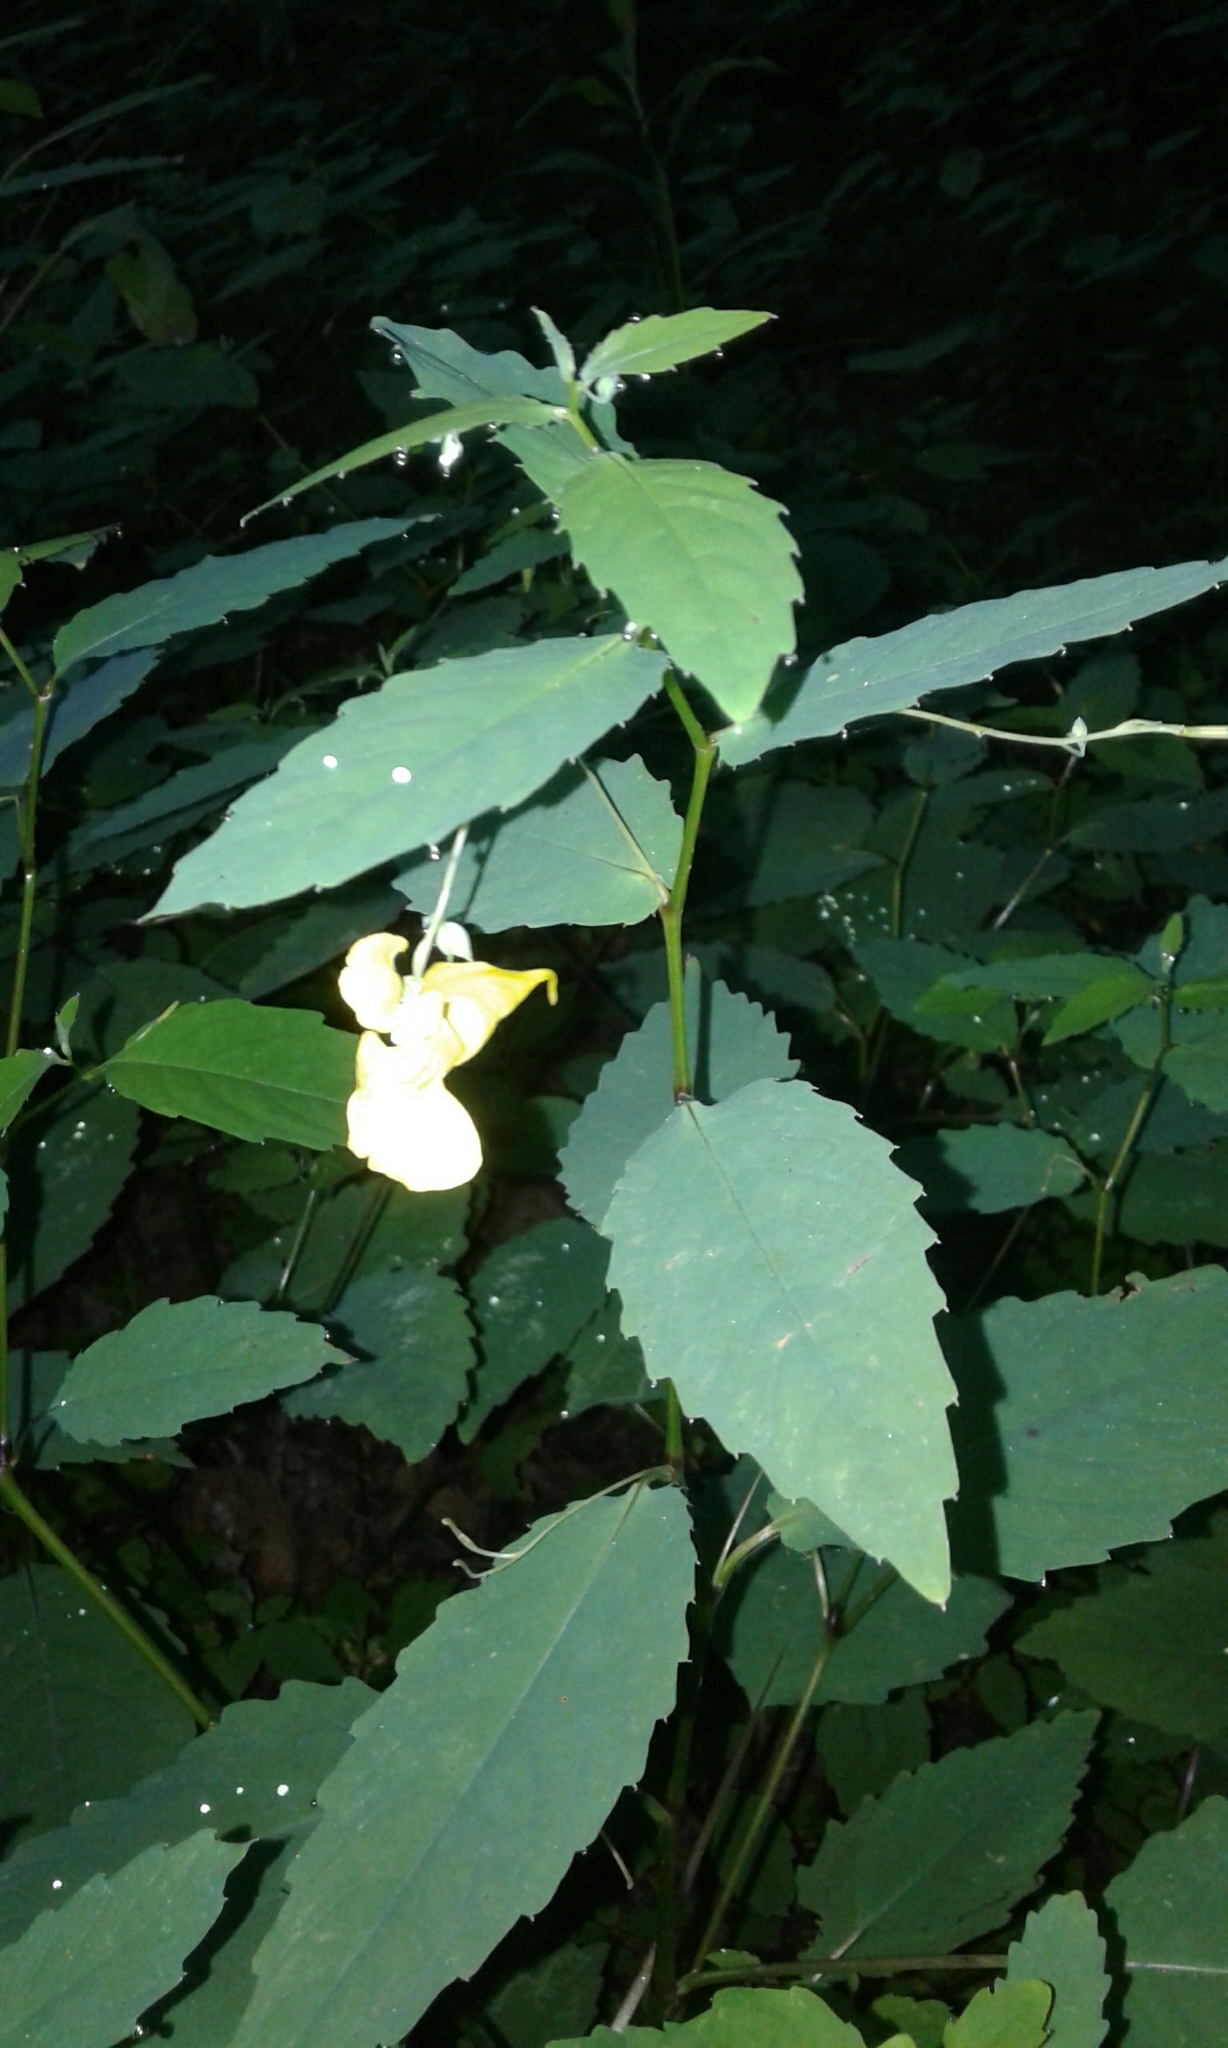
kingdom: Plantae
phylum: Tracheophyta
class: Magnoliopsida
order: Ericales
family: Balsaminaceae
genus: Impatiens
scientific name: Impatiens pallida
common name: Pale snapweed
